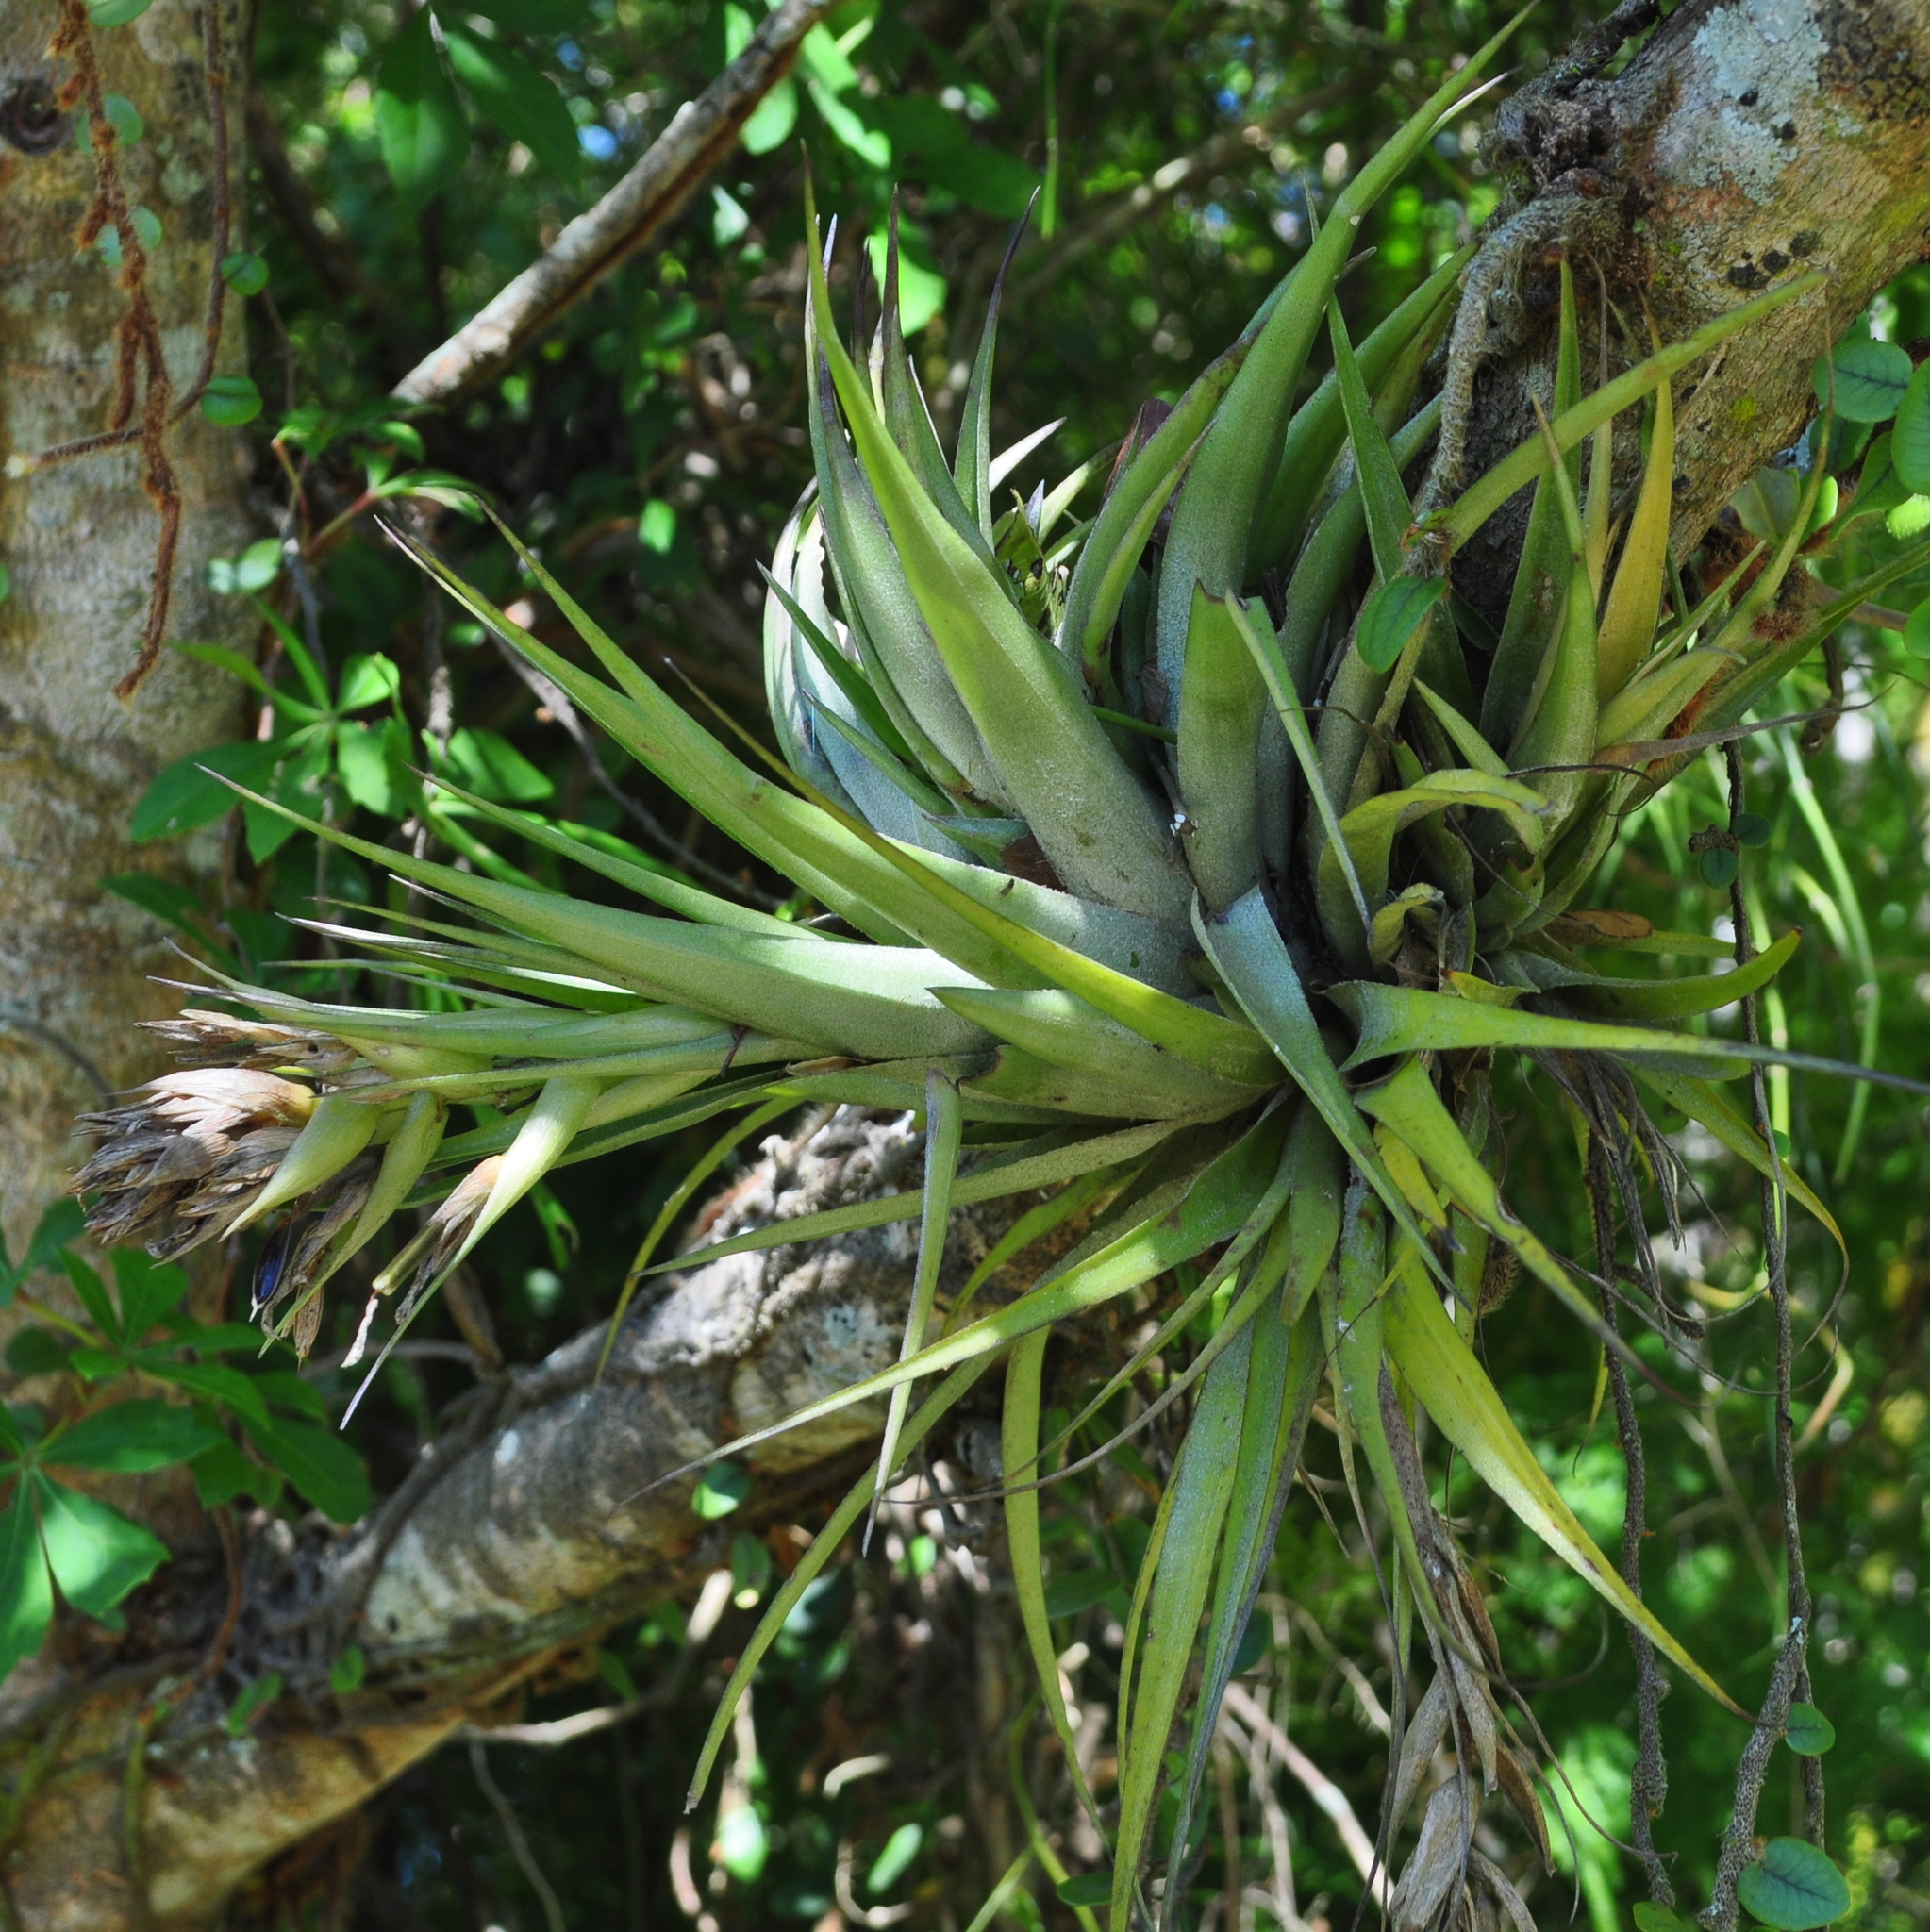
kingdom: Plantae
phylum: Tracheophyta
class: Liliopsida
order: Poales
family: Bromeliaceae
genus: Tillandsia
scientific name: Tillandsia geminiflora
